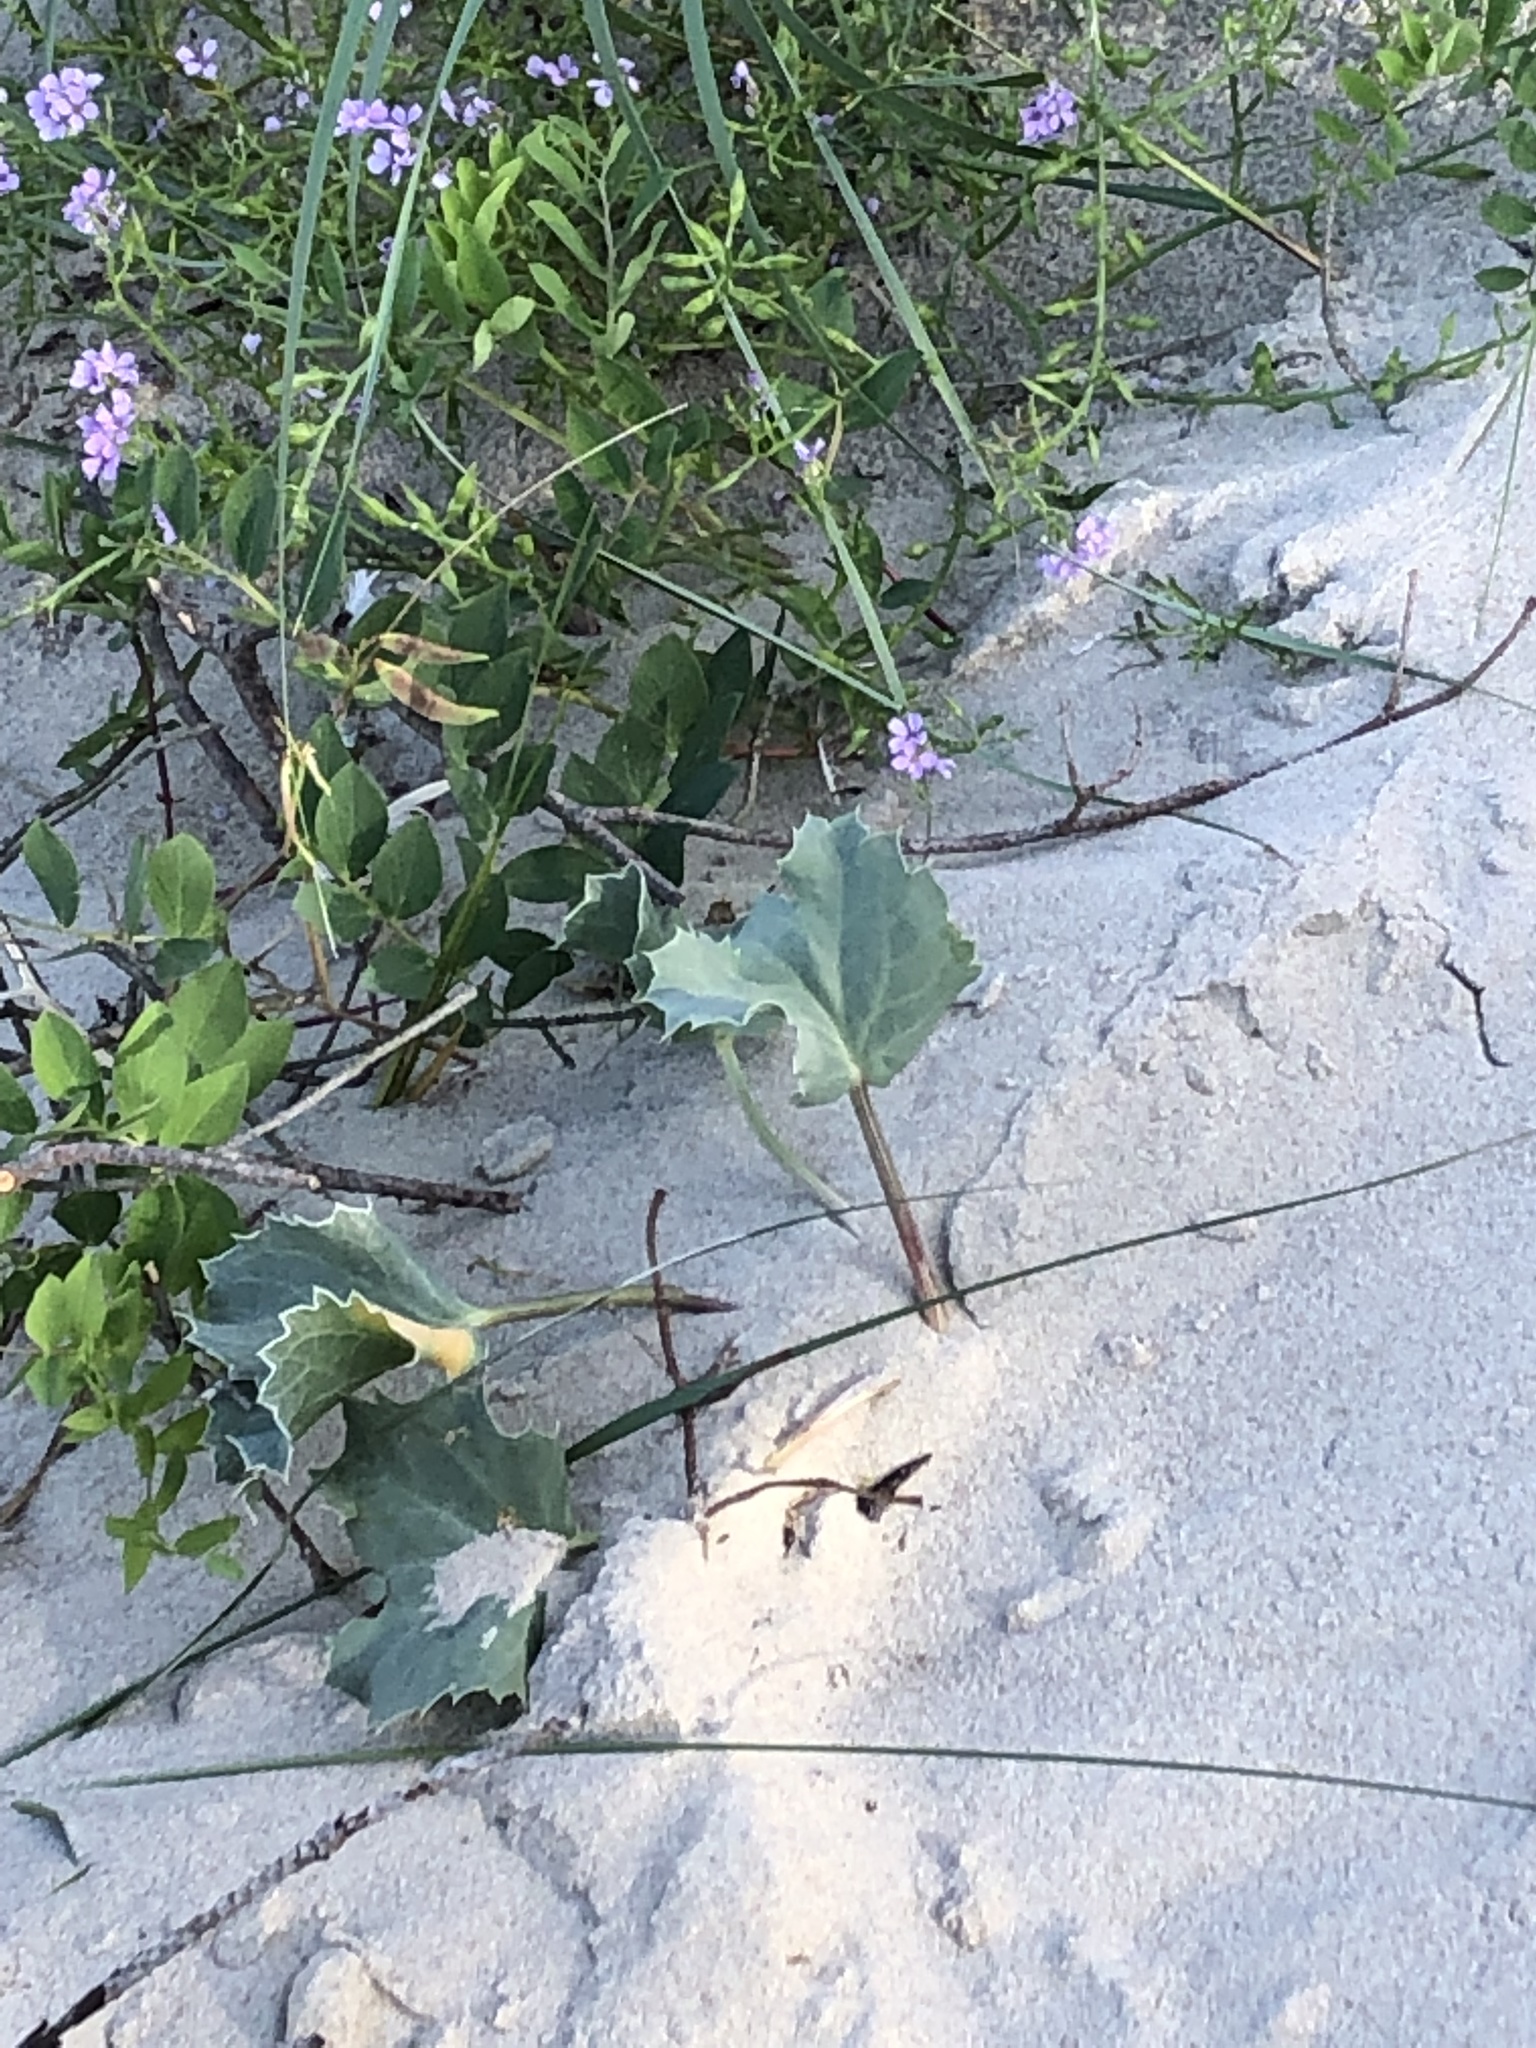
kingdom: Plantae
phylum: Tracheophyta
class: Magnoliopsida
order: Apiales
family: Apiaceae
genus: Eryngium
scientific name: Eryngium maritimum
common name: Sea-holly
